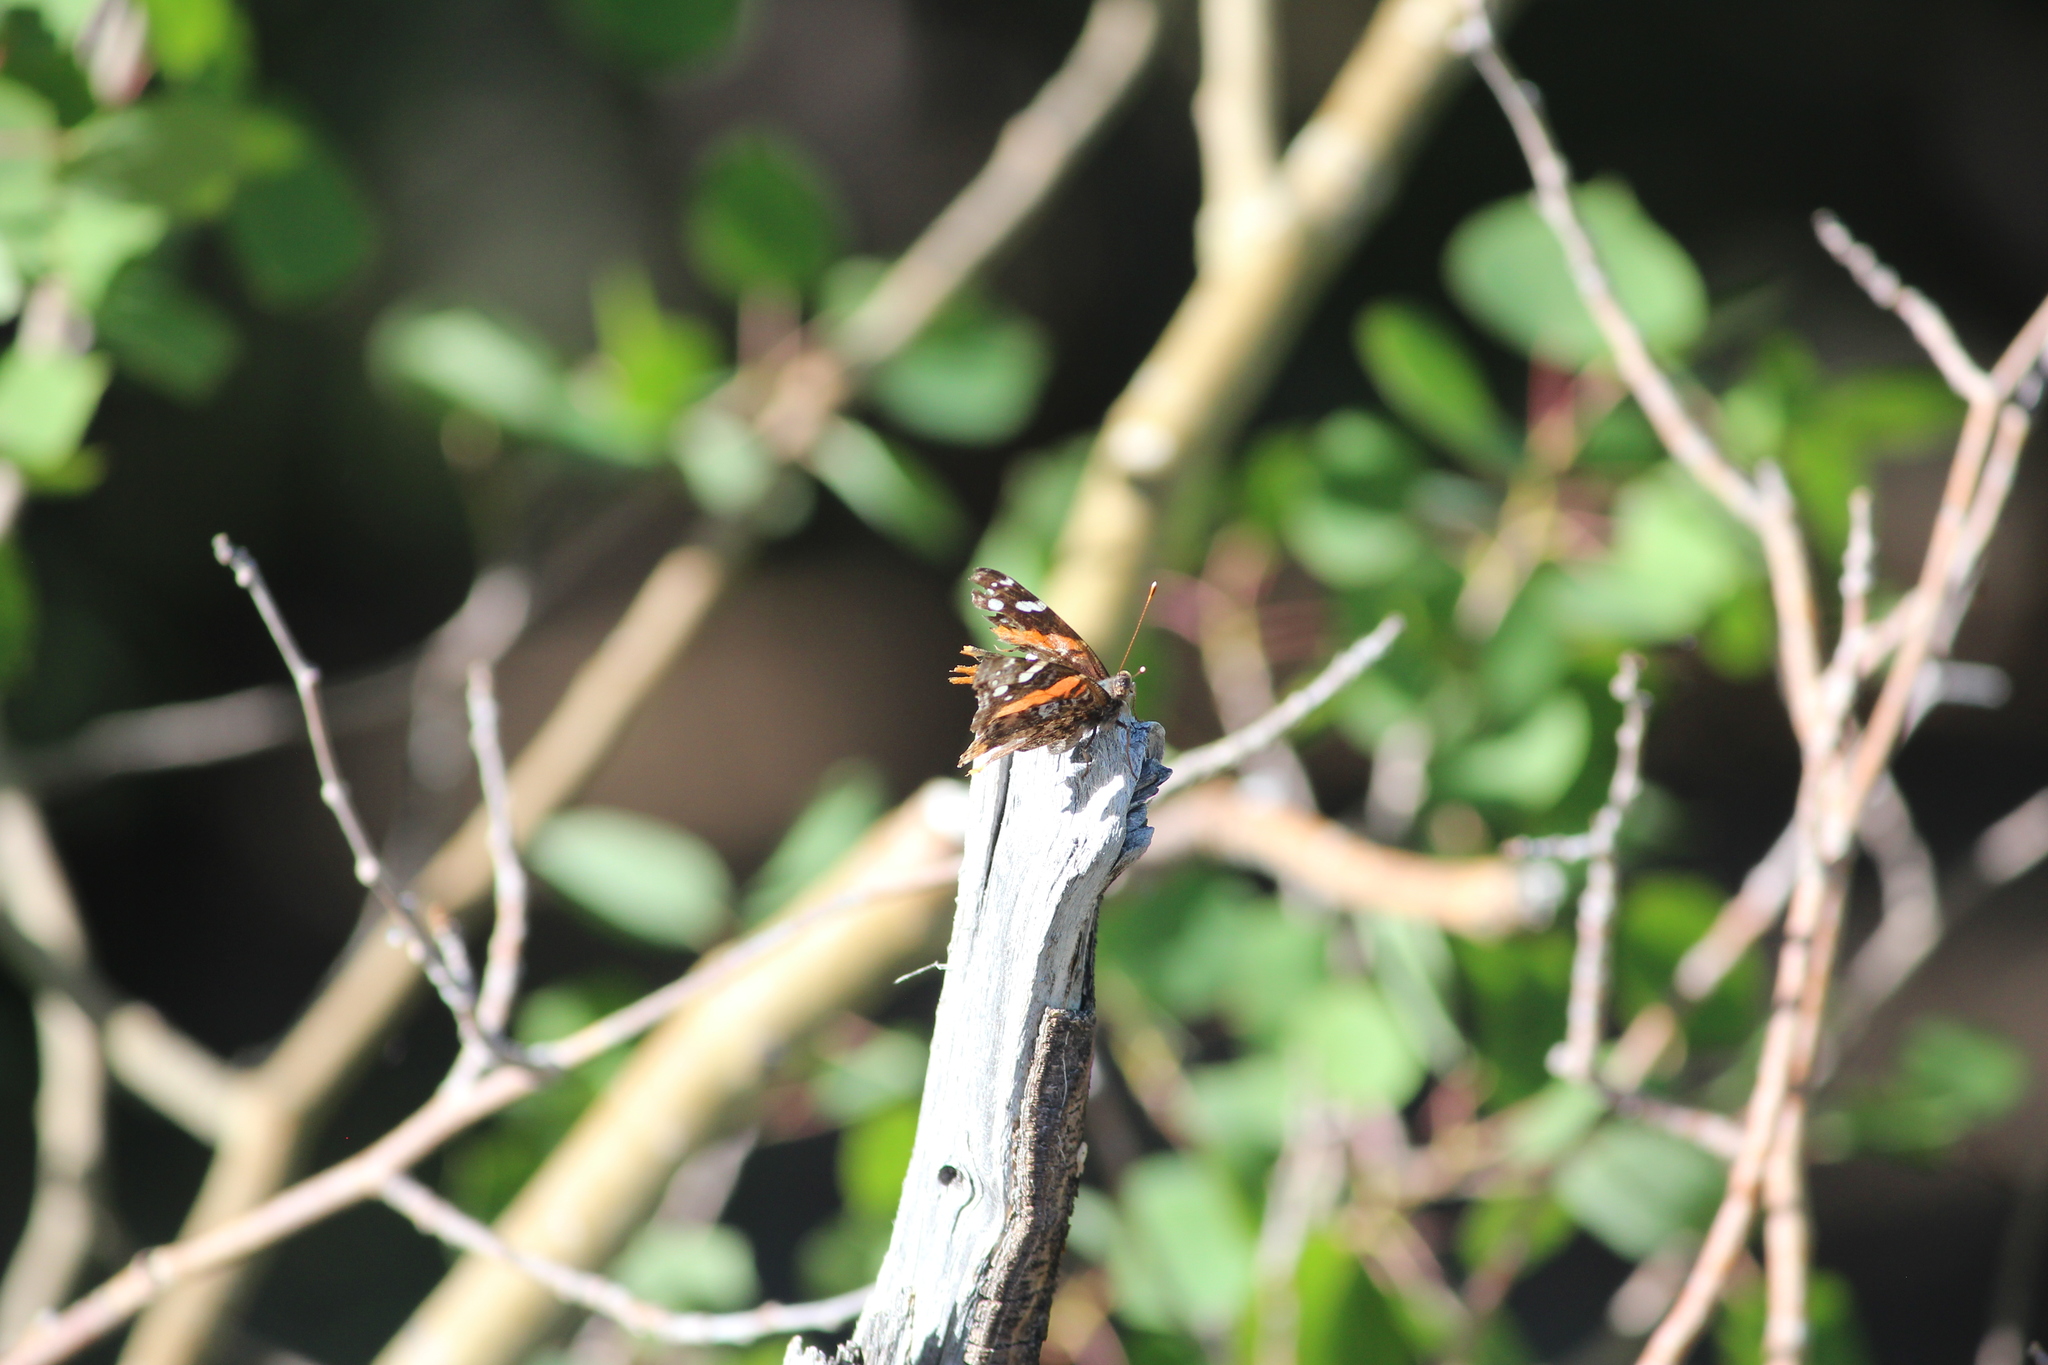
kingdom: Animalia
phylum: Arthropoda
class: Insecta
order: Lepidoptera
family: Nymphalidae
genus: Vanessa
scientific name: Vanessa atalanta
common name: Red admiral
